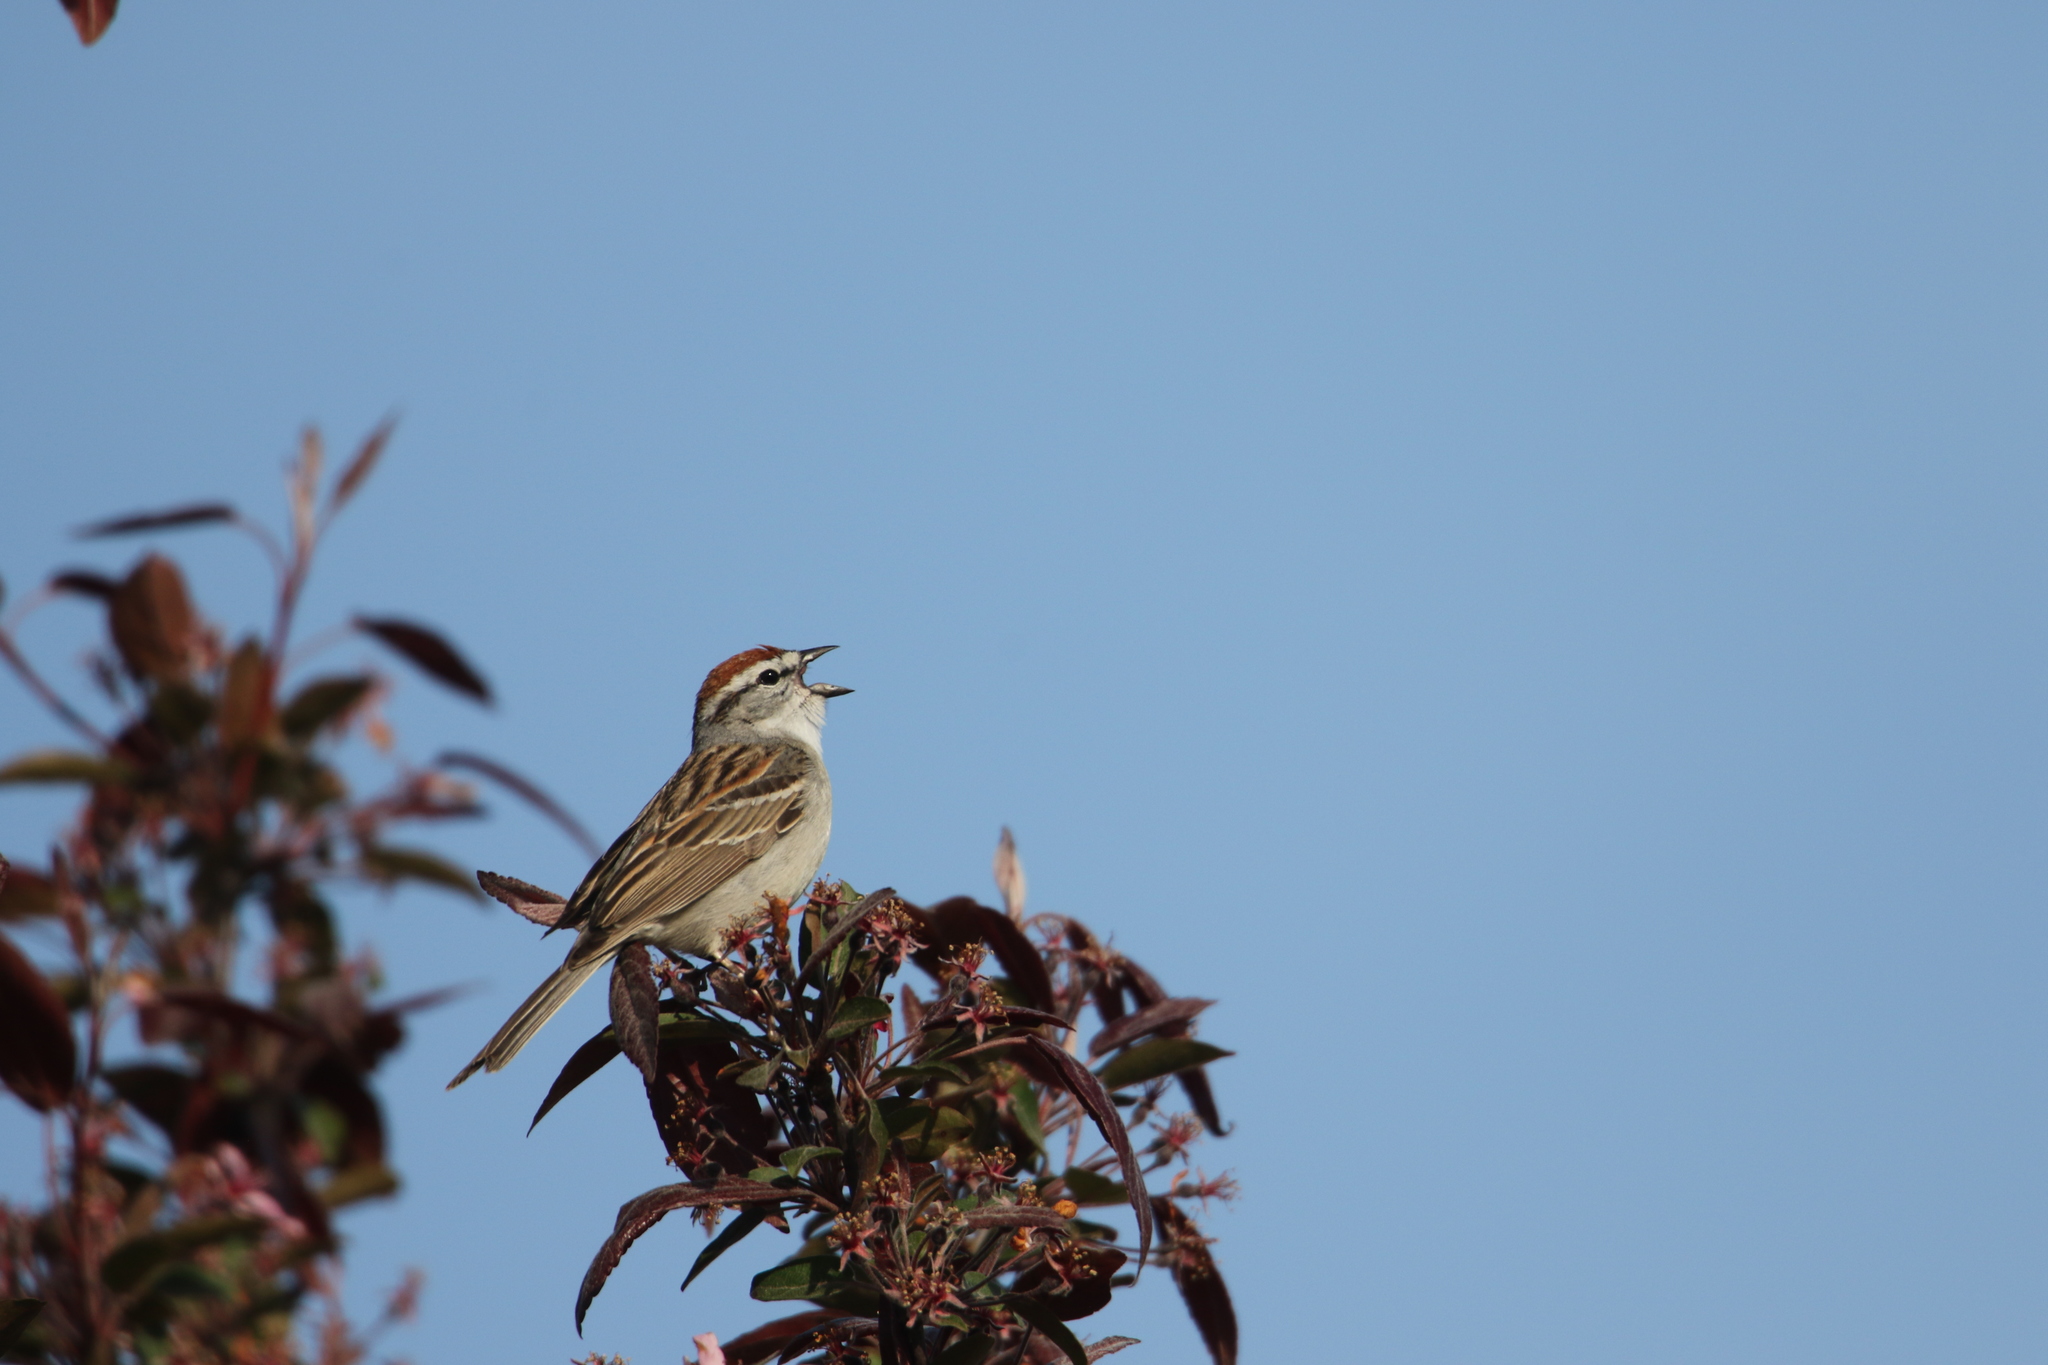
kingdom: Animalia
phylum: Chordata
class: Aves
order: Passeriformes
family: Passerellidae
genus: Spizella
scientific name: Spizella passerina
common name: Chipping sparrow
